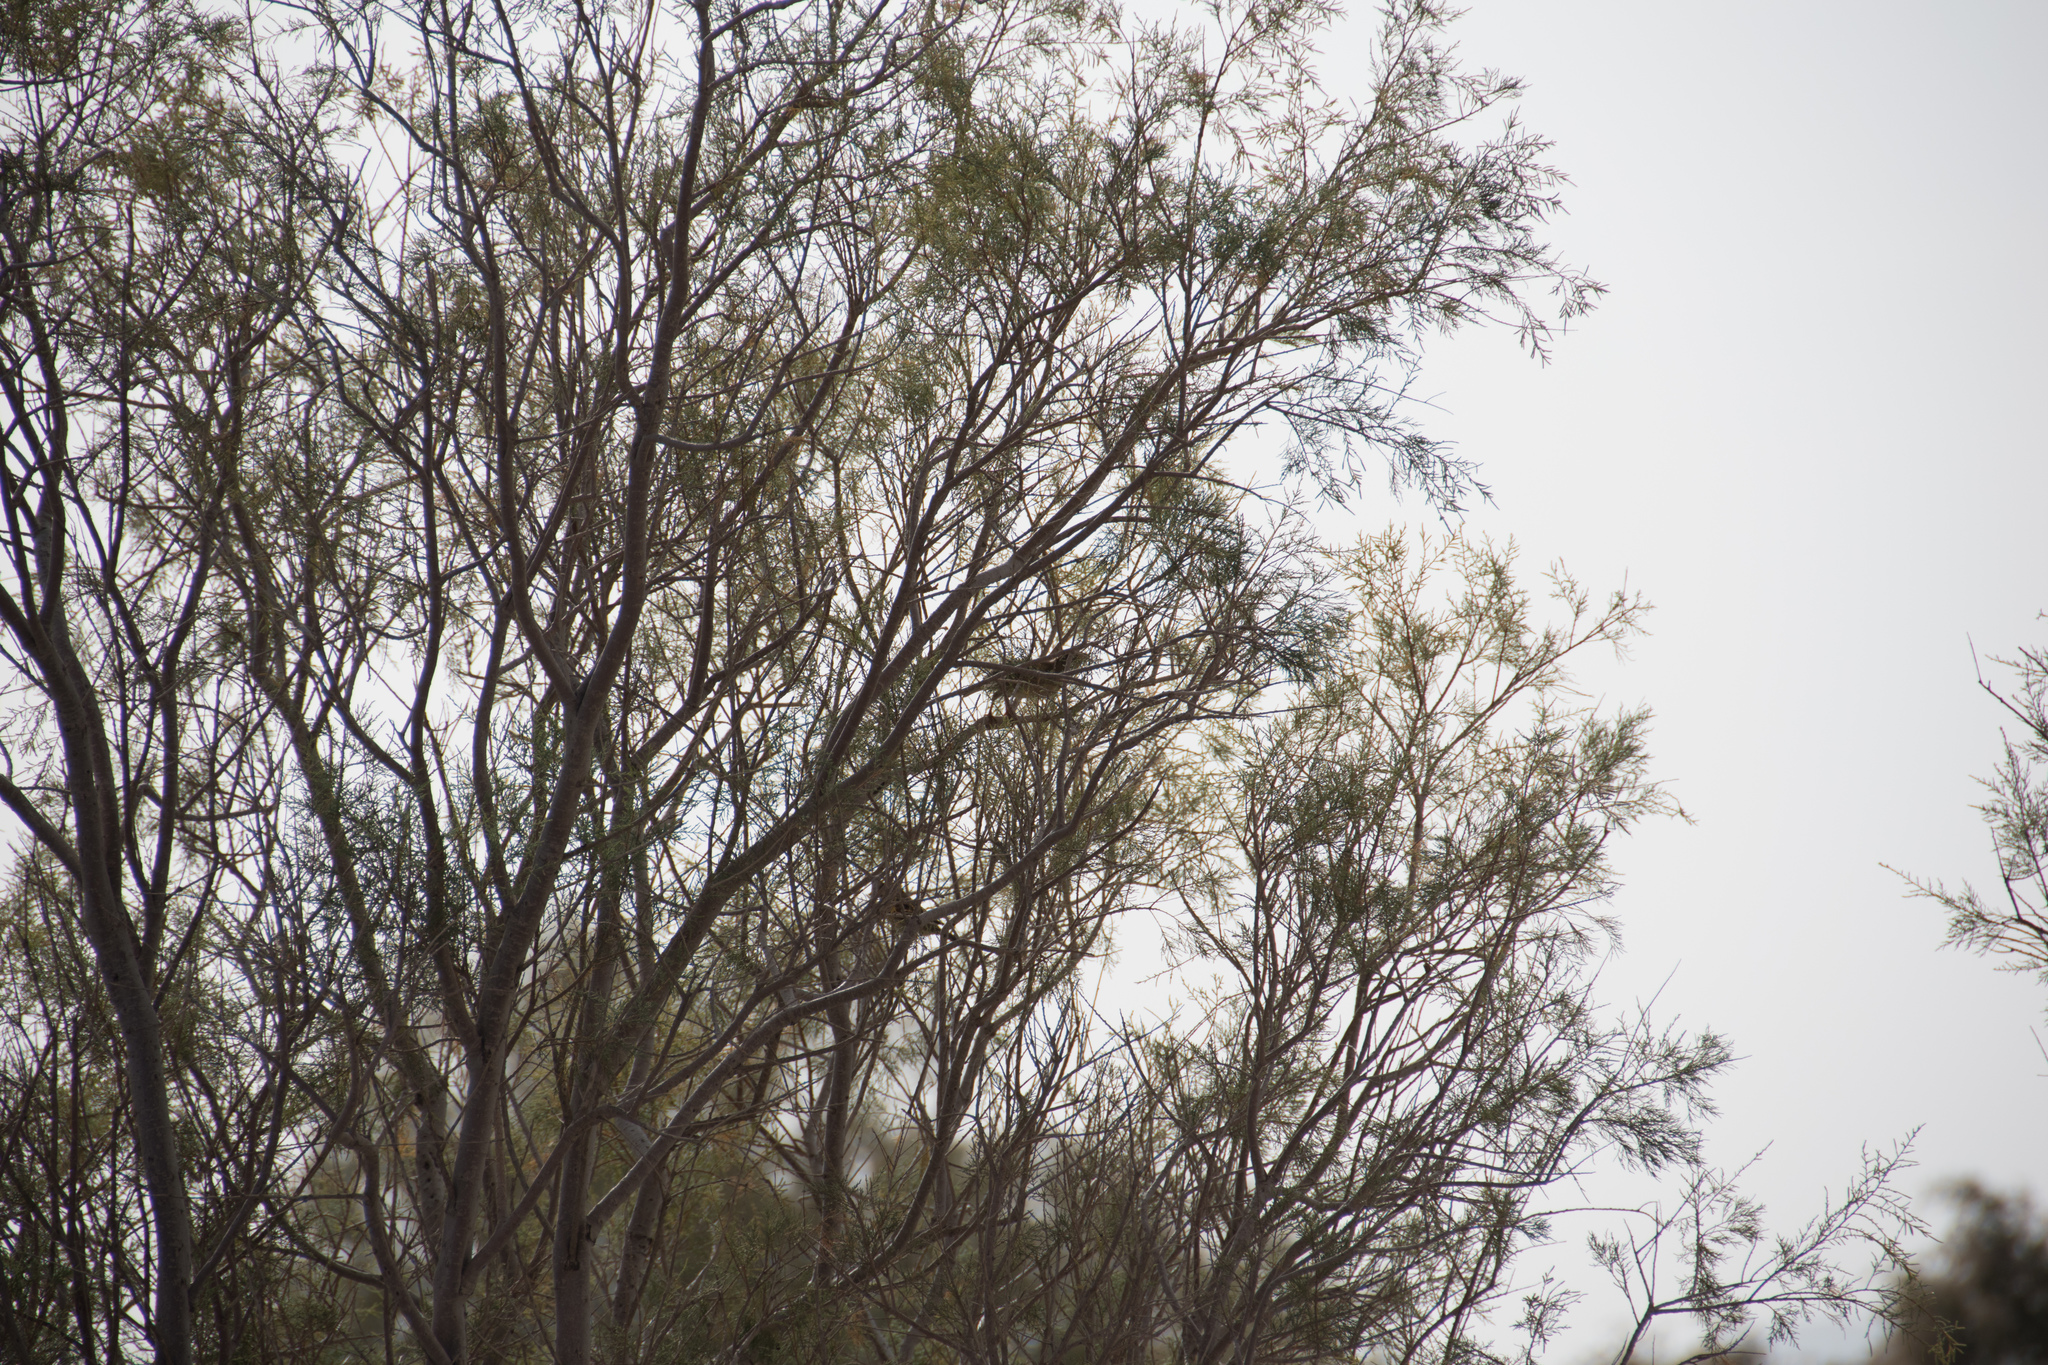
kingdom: Animalia
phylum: Chordata
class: Aves
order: Passeriformes
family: Passeridae
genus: Passer
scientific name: Passer
